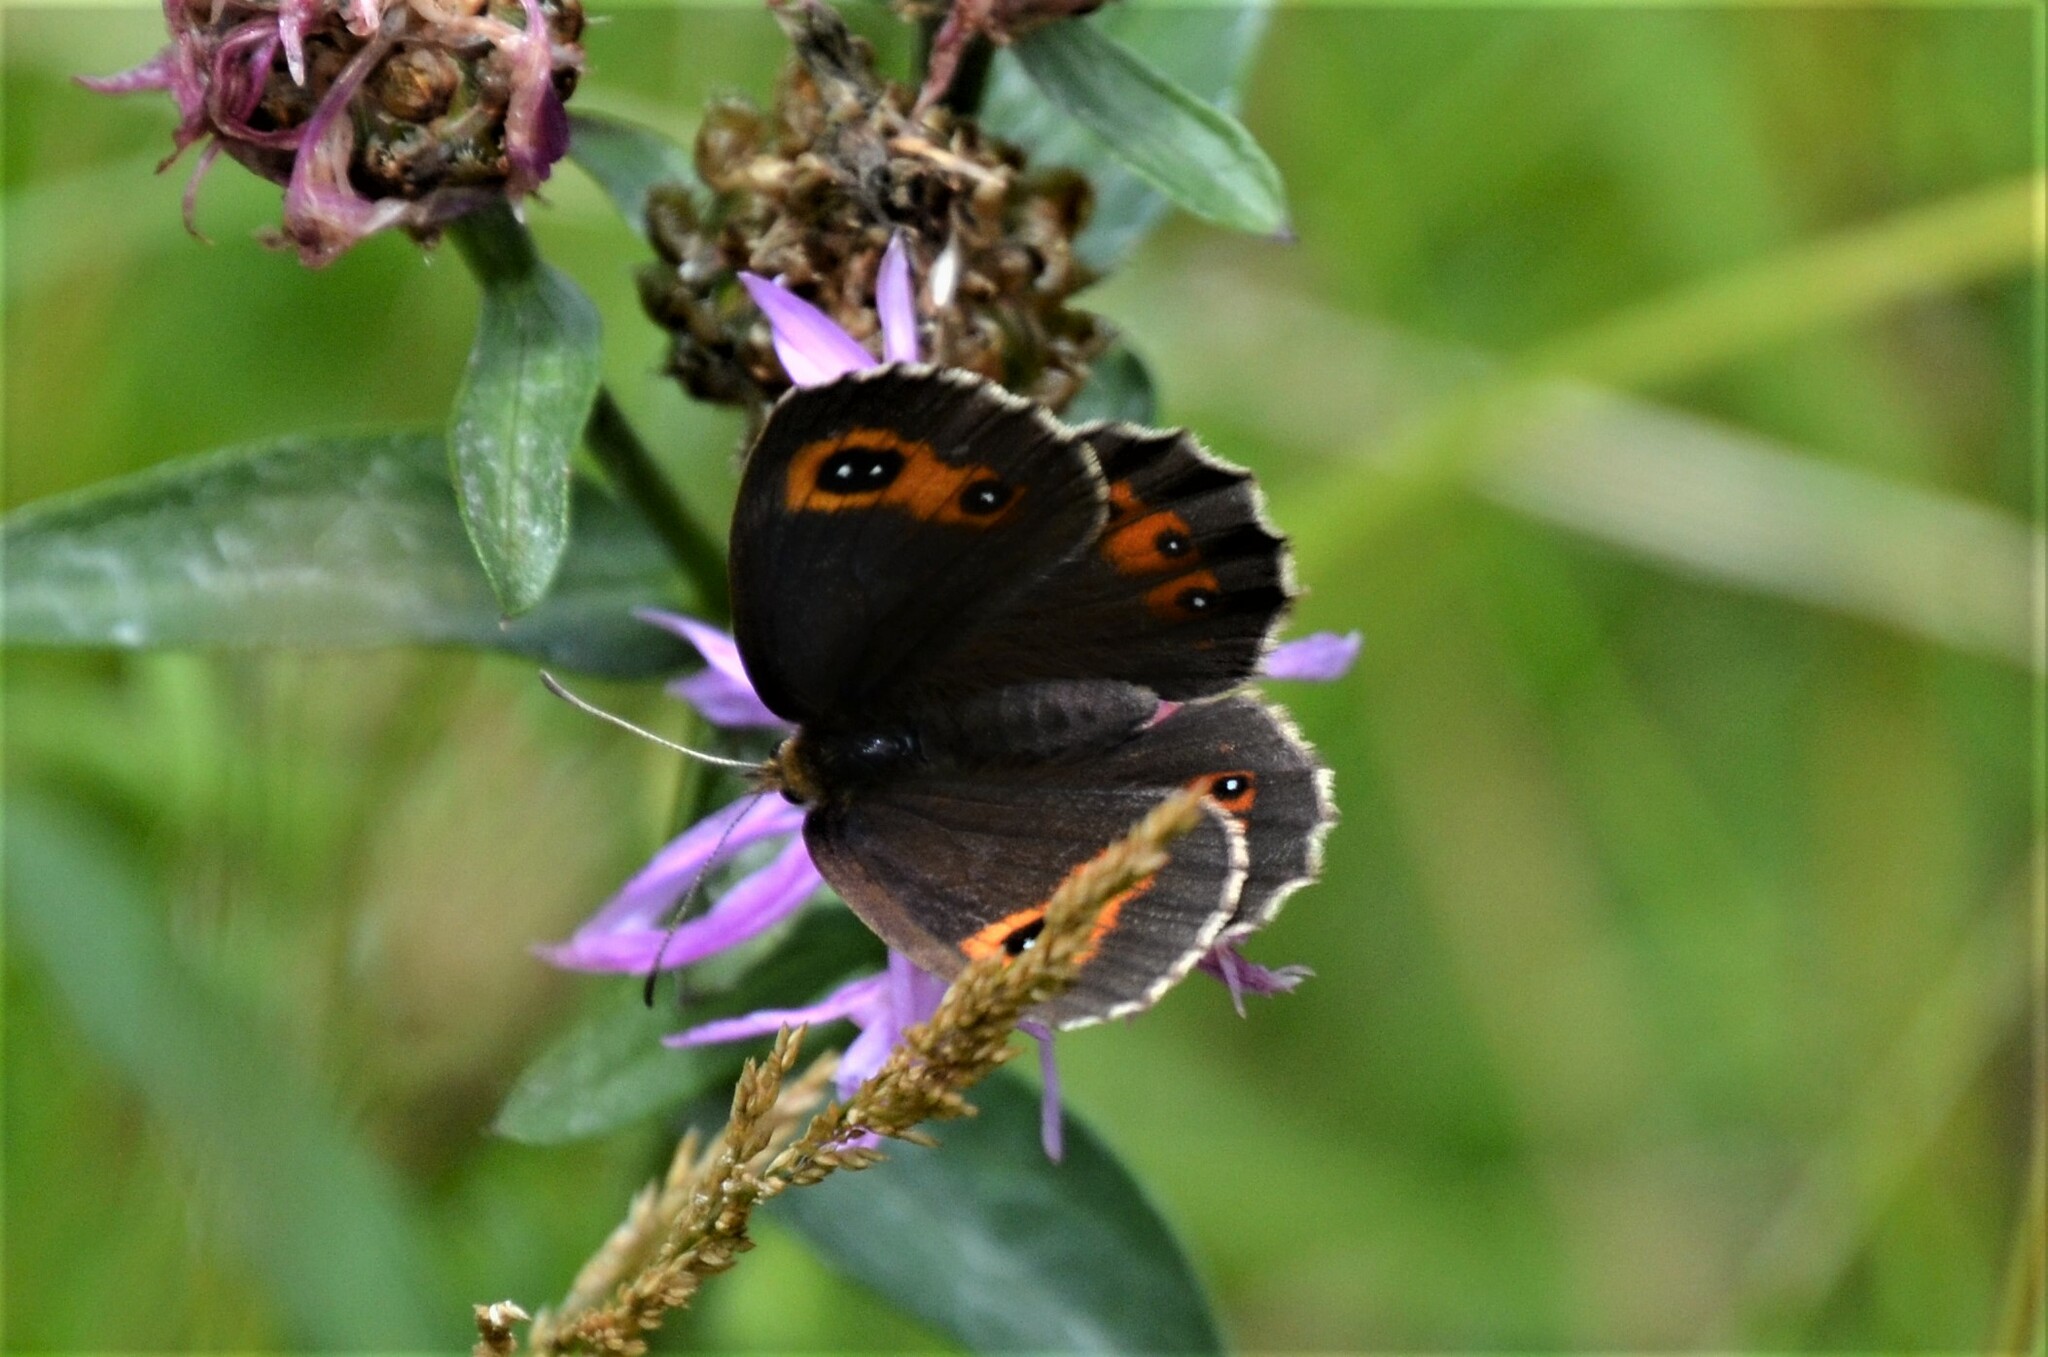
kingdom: Animalia
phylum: Arthropoda
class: Insecta
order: Lepidoptera
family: Nymphalidae
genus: Erebia
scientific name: Erebia aethiops
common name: Scotch argus
